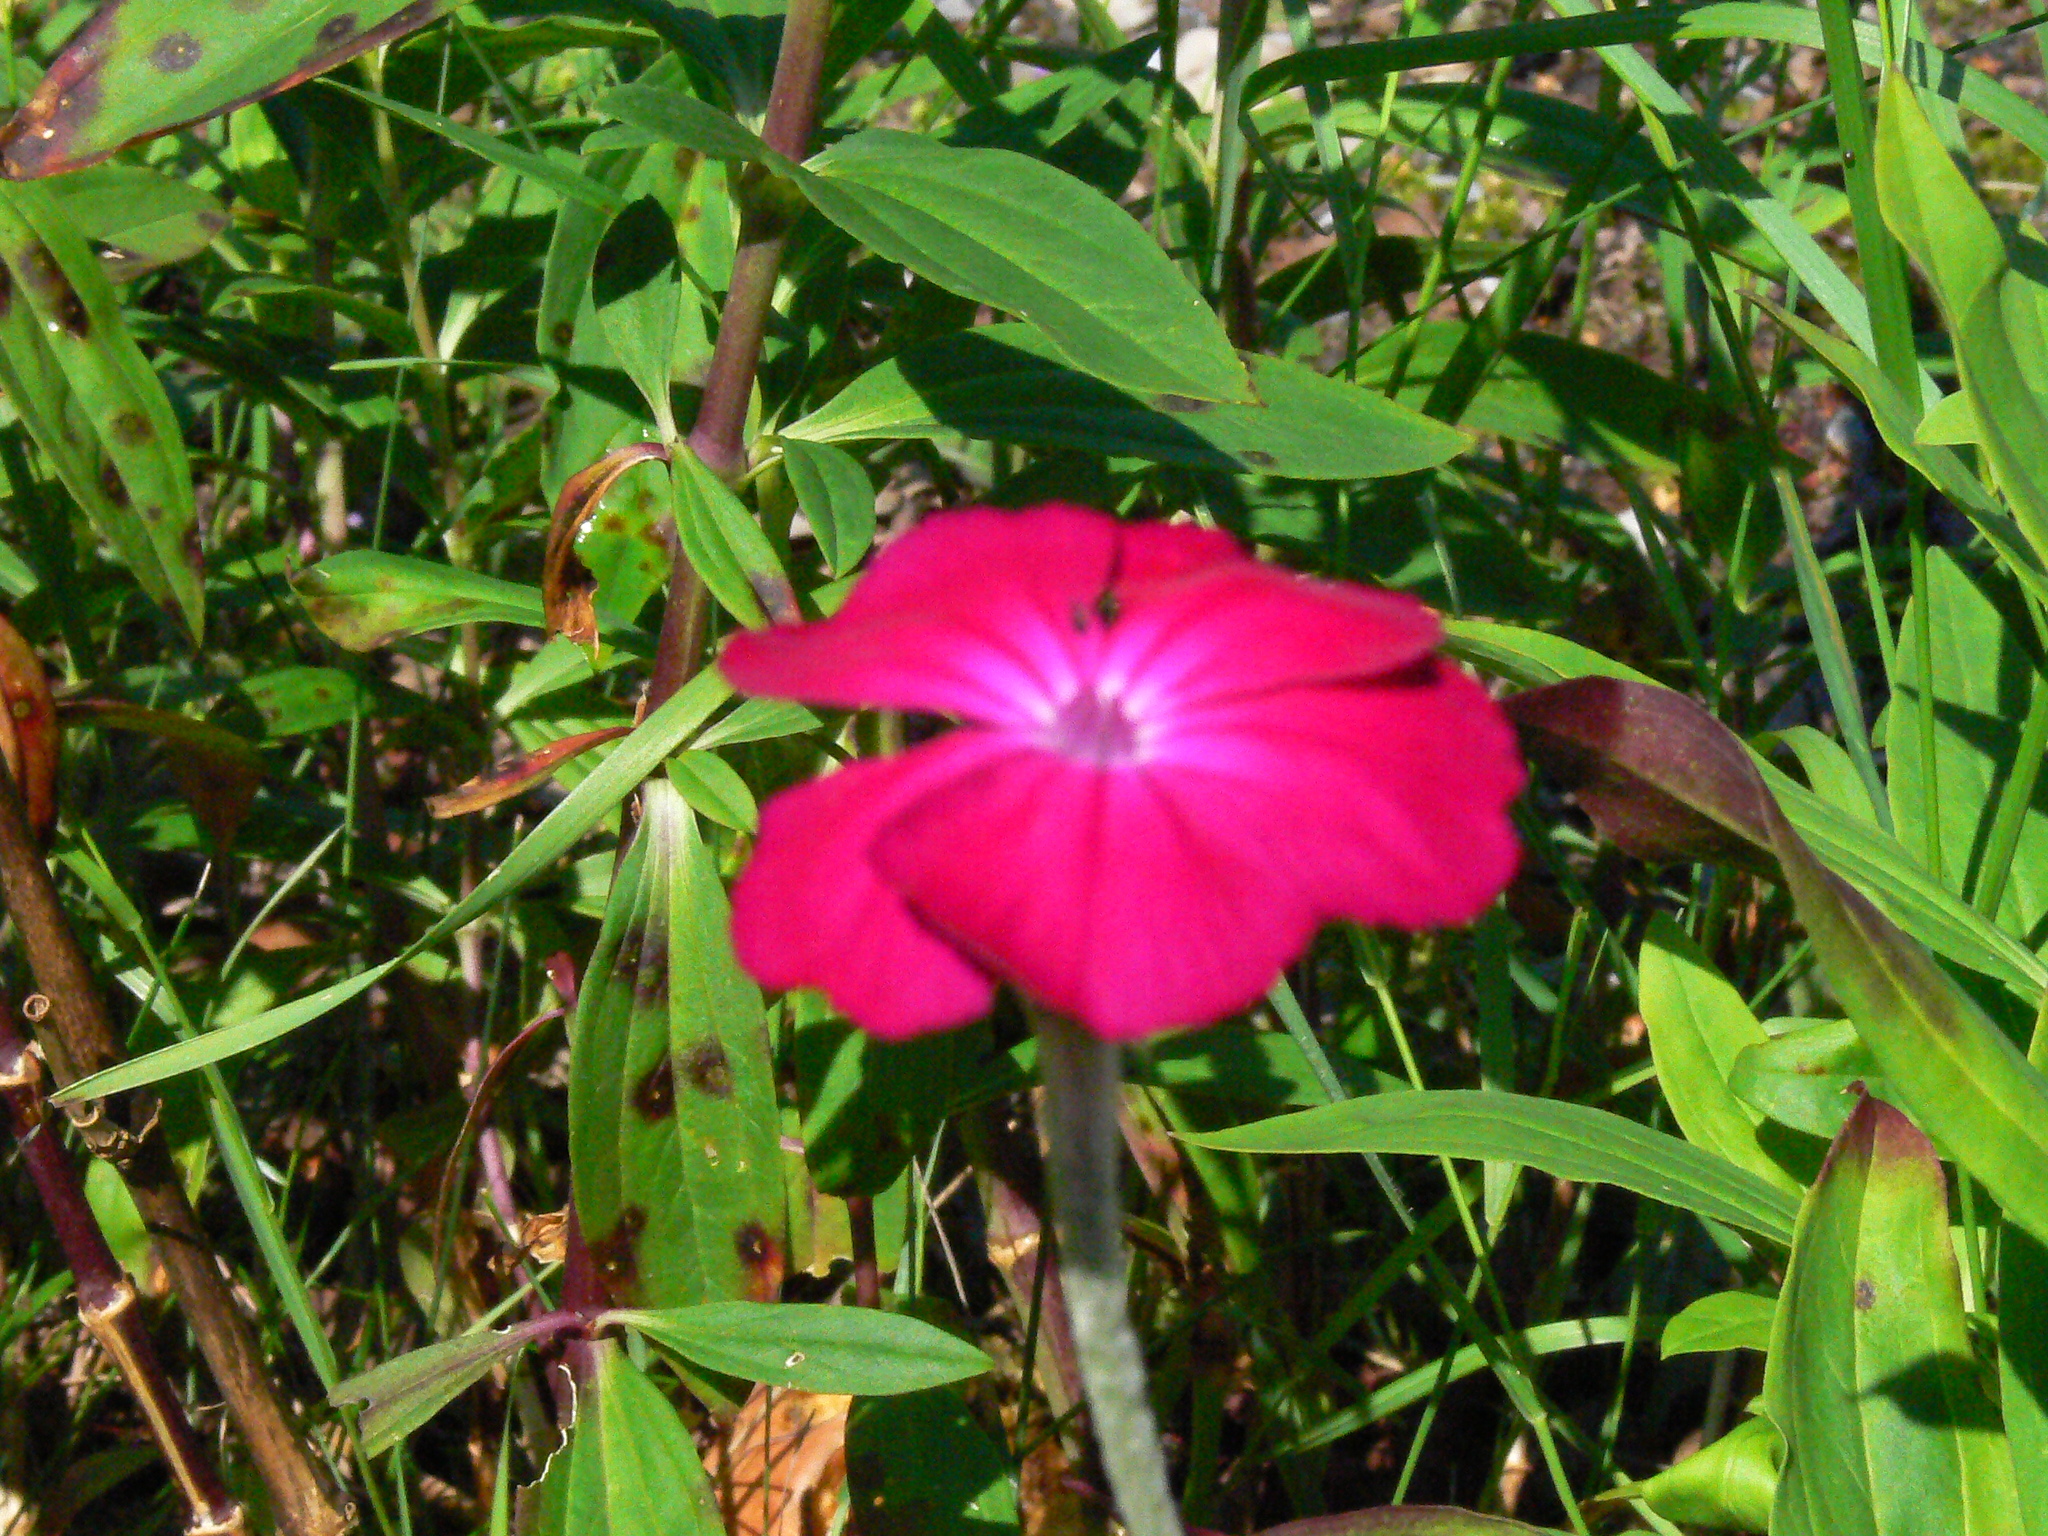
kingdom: Plantae
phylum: Tracheophyta
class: Magnoliopsida
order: Caryophyllales
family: Caryophyllaceae
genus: Silene
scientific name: Silene coronaria
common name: Rose campion
